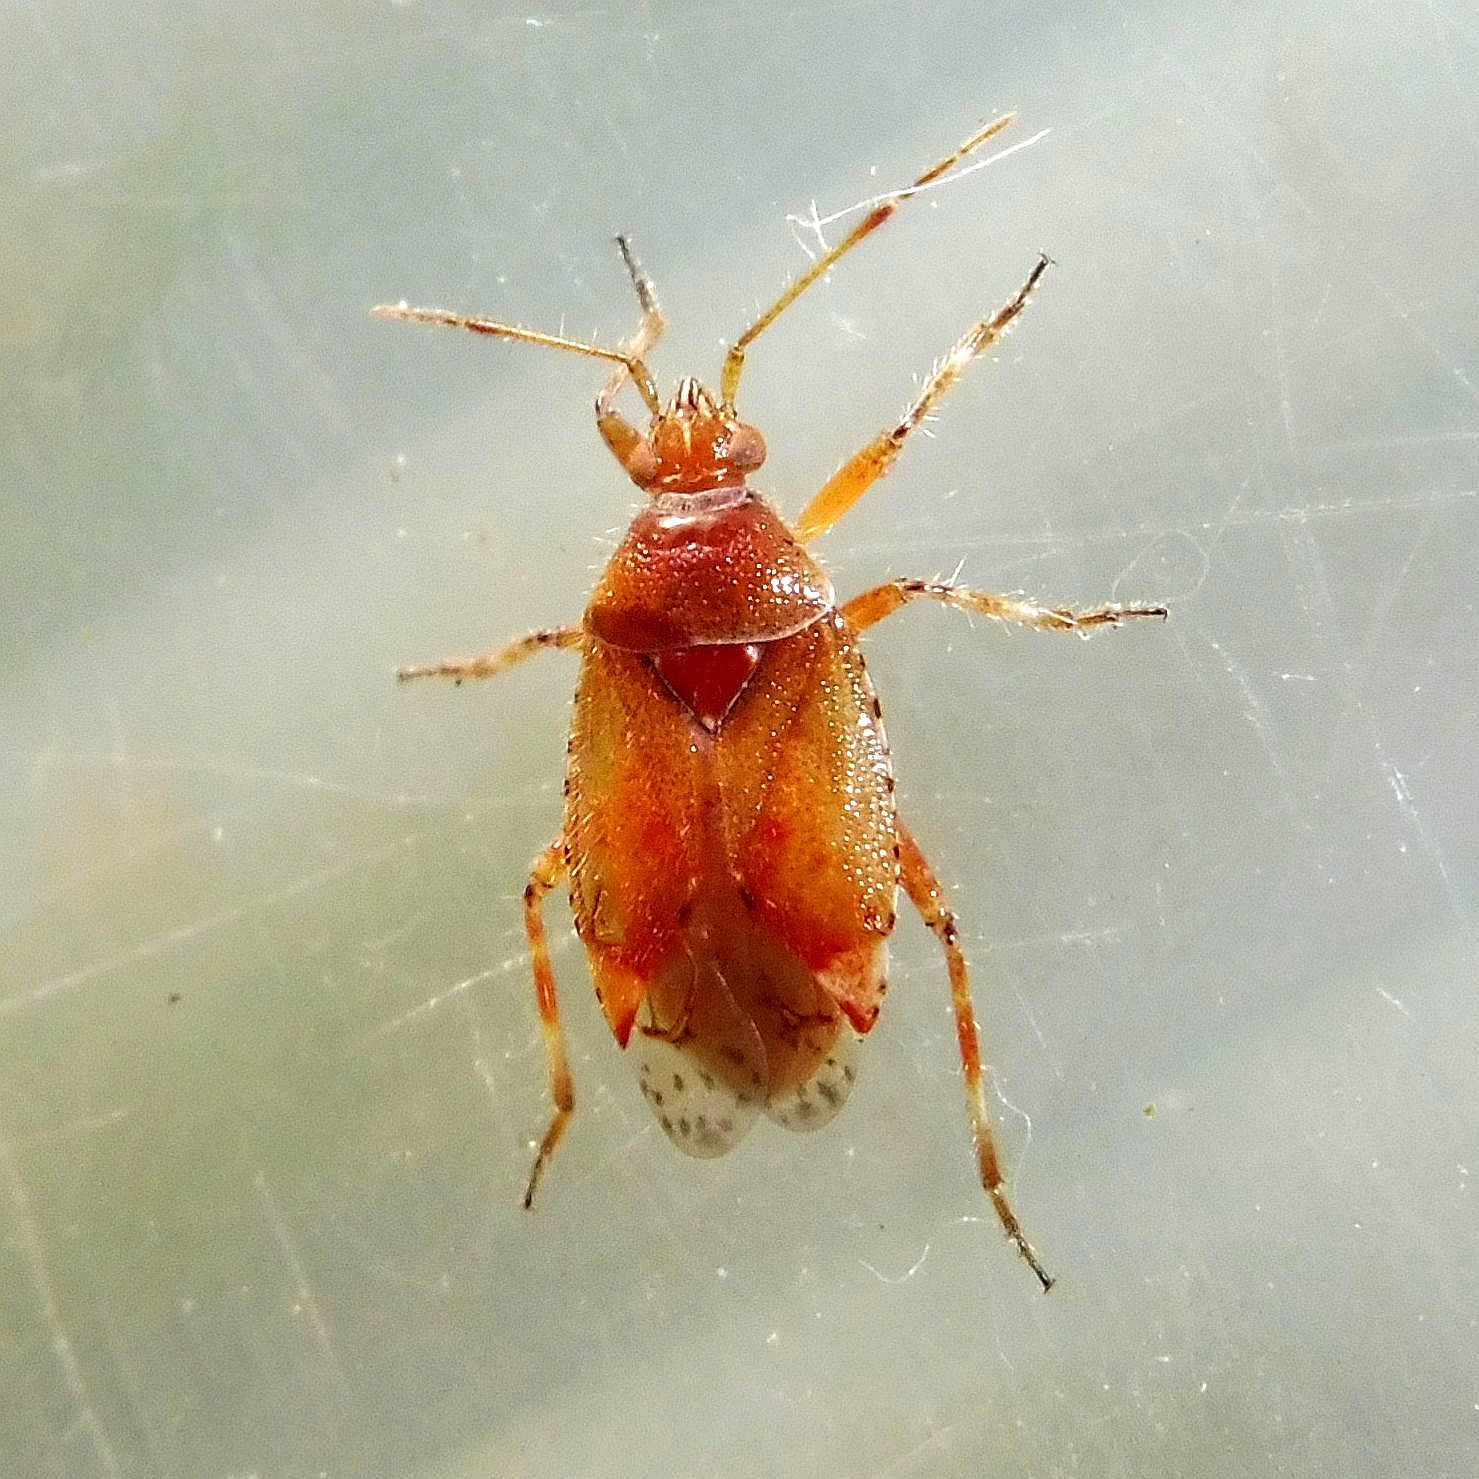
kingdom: Animalia
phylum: Arthropoda
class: Insecta
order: Hemiptera
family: Miridae
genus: Alloeotomus
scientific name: Alloeotomus gothicus
